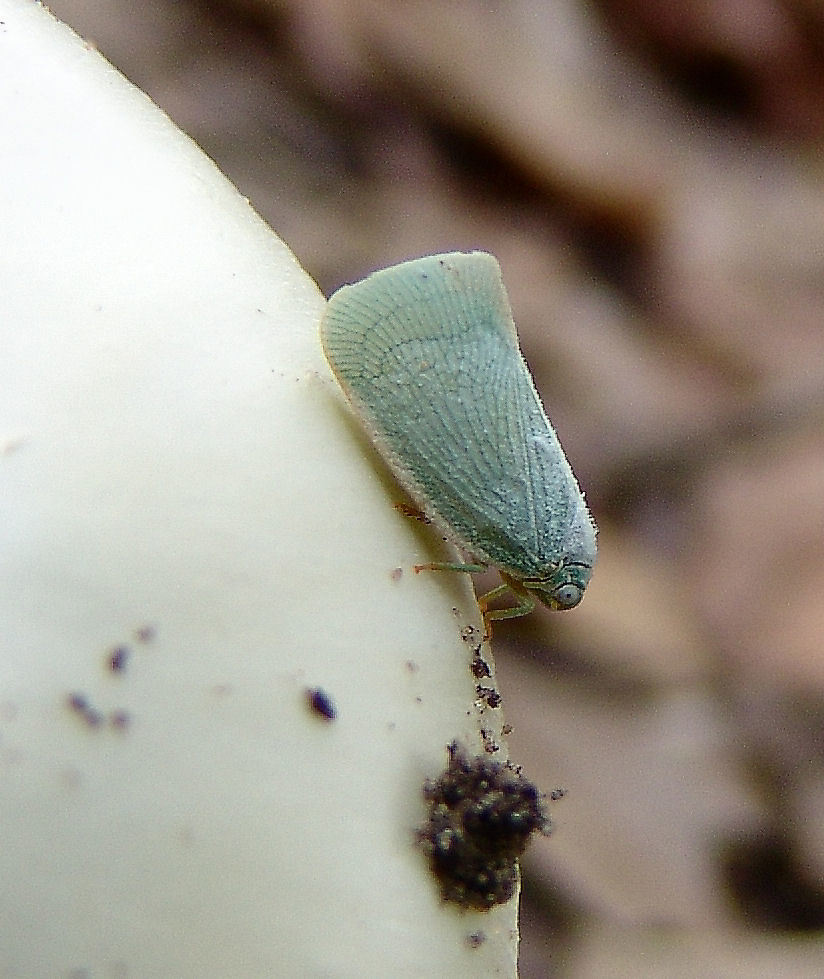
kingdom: Animalia
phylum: Arthropoda
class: Insecta
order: Hemiptera
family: Flatidae
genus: Flatormenis
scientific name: Flatormenis proxima
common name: Northern flatid planthopper
